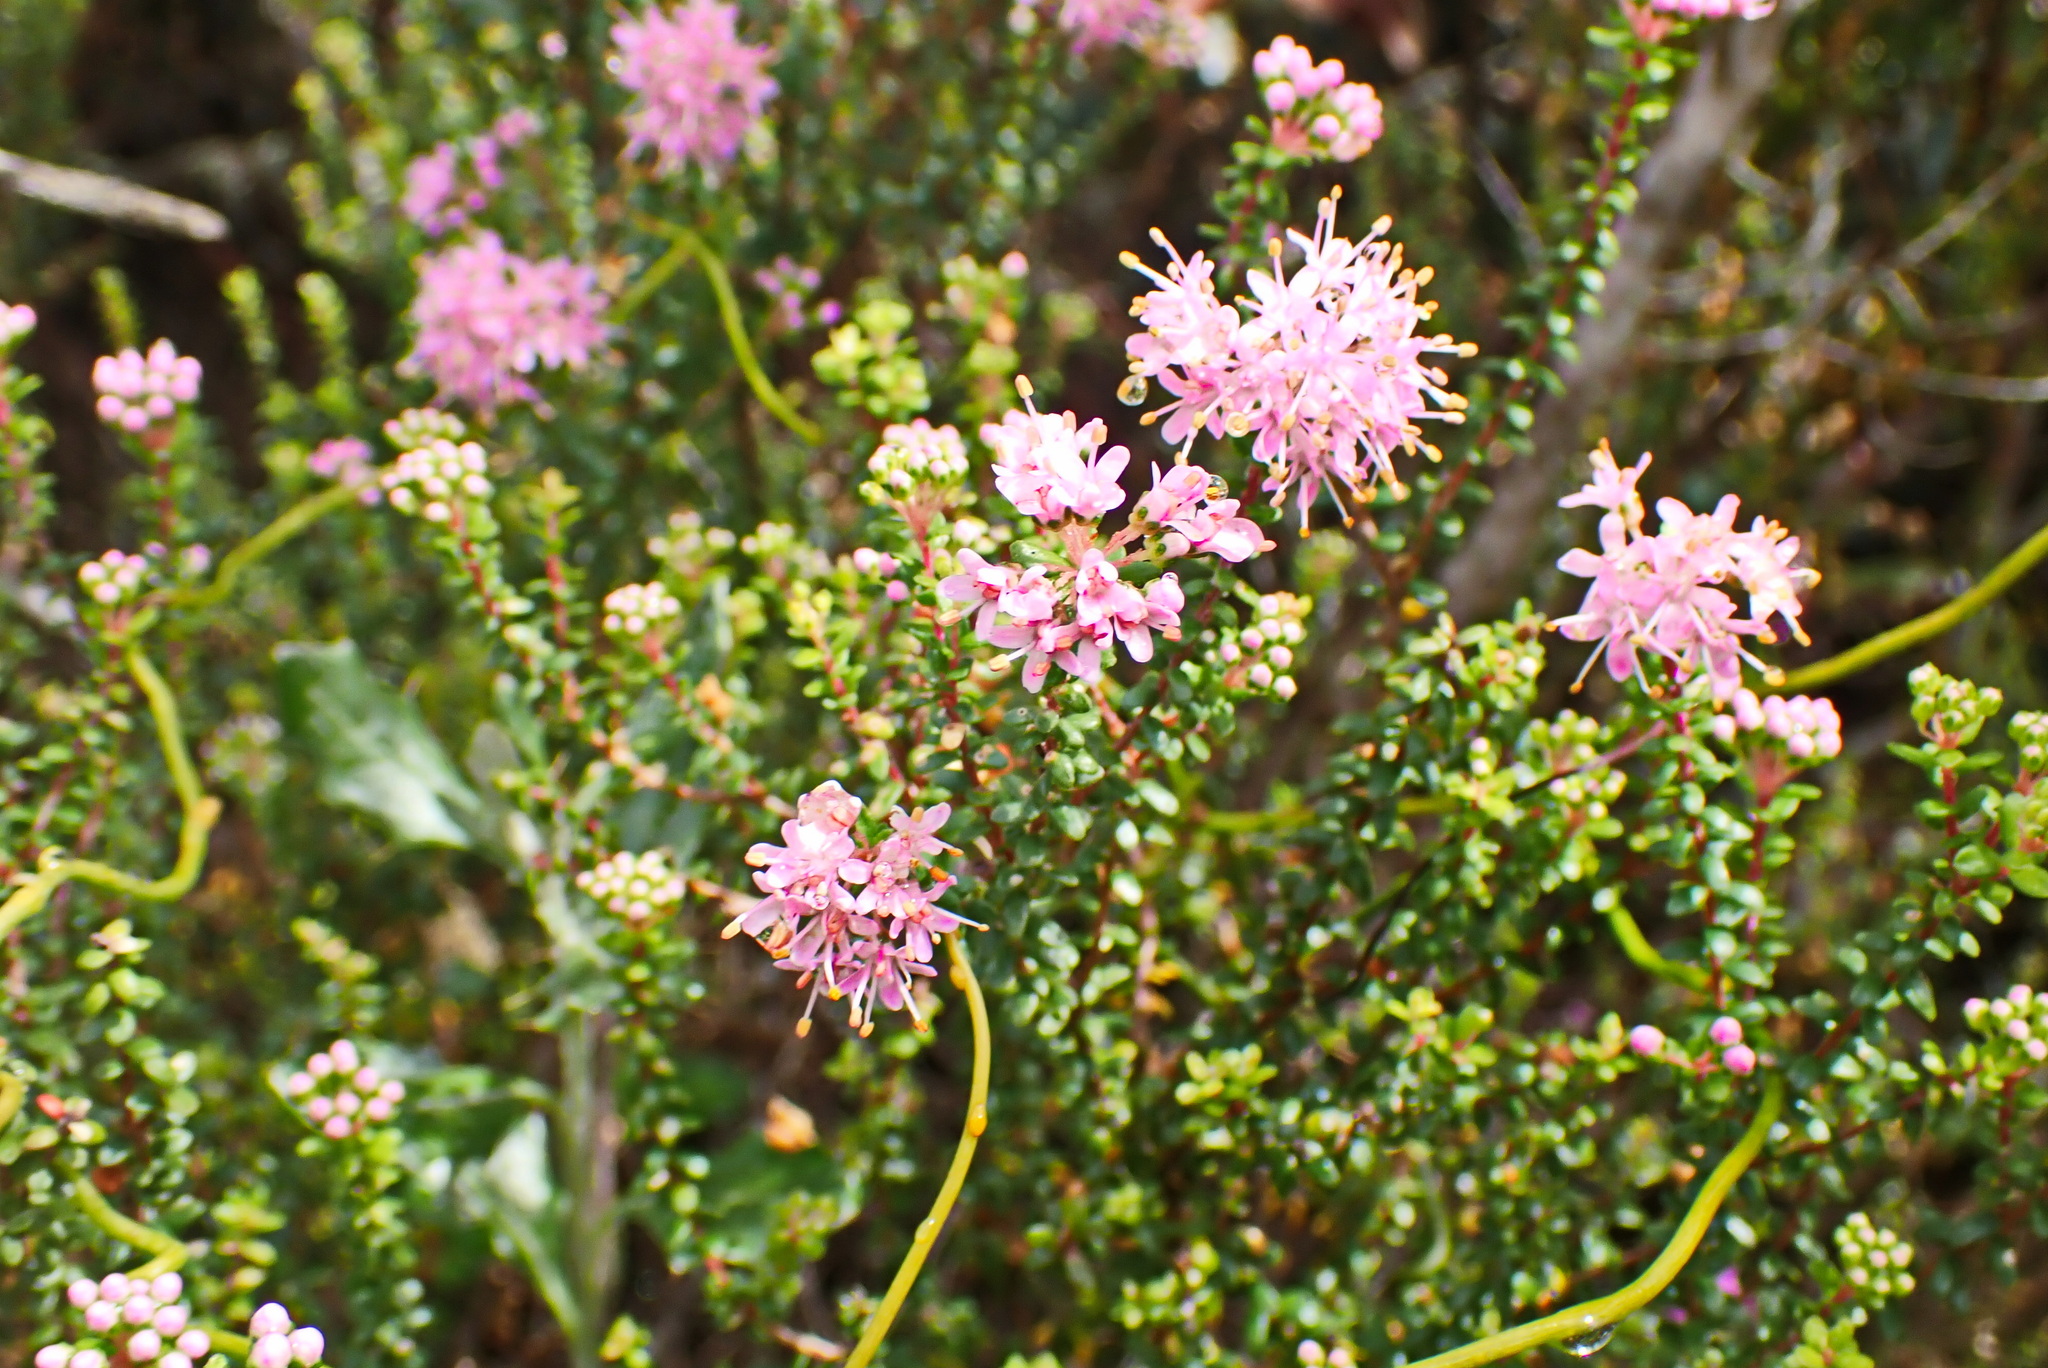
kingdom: Plantae
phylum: Tracheophyta
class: Magnoliopsida
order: Sapindales
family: Rutaceae
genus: Agathosma
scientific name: Agathosma capensis
